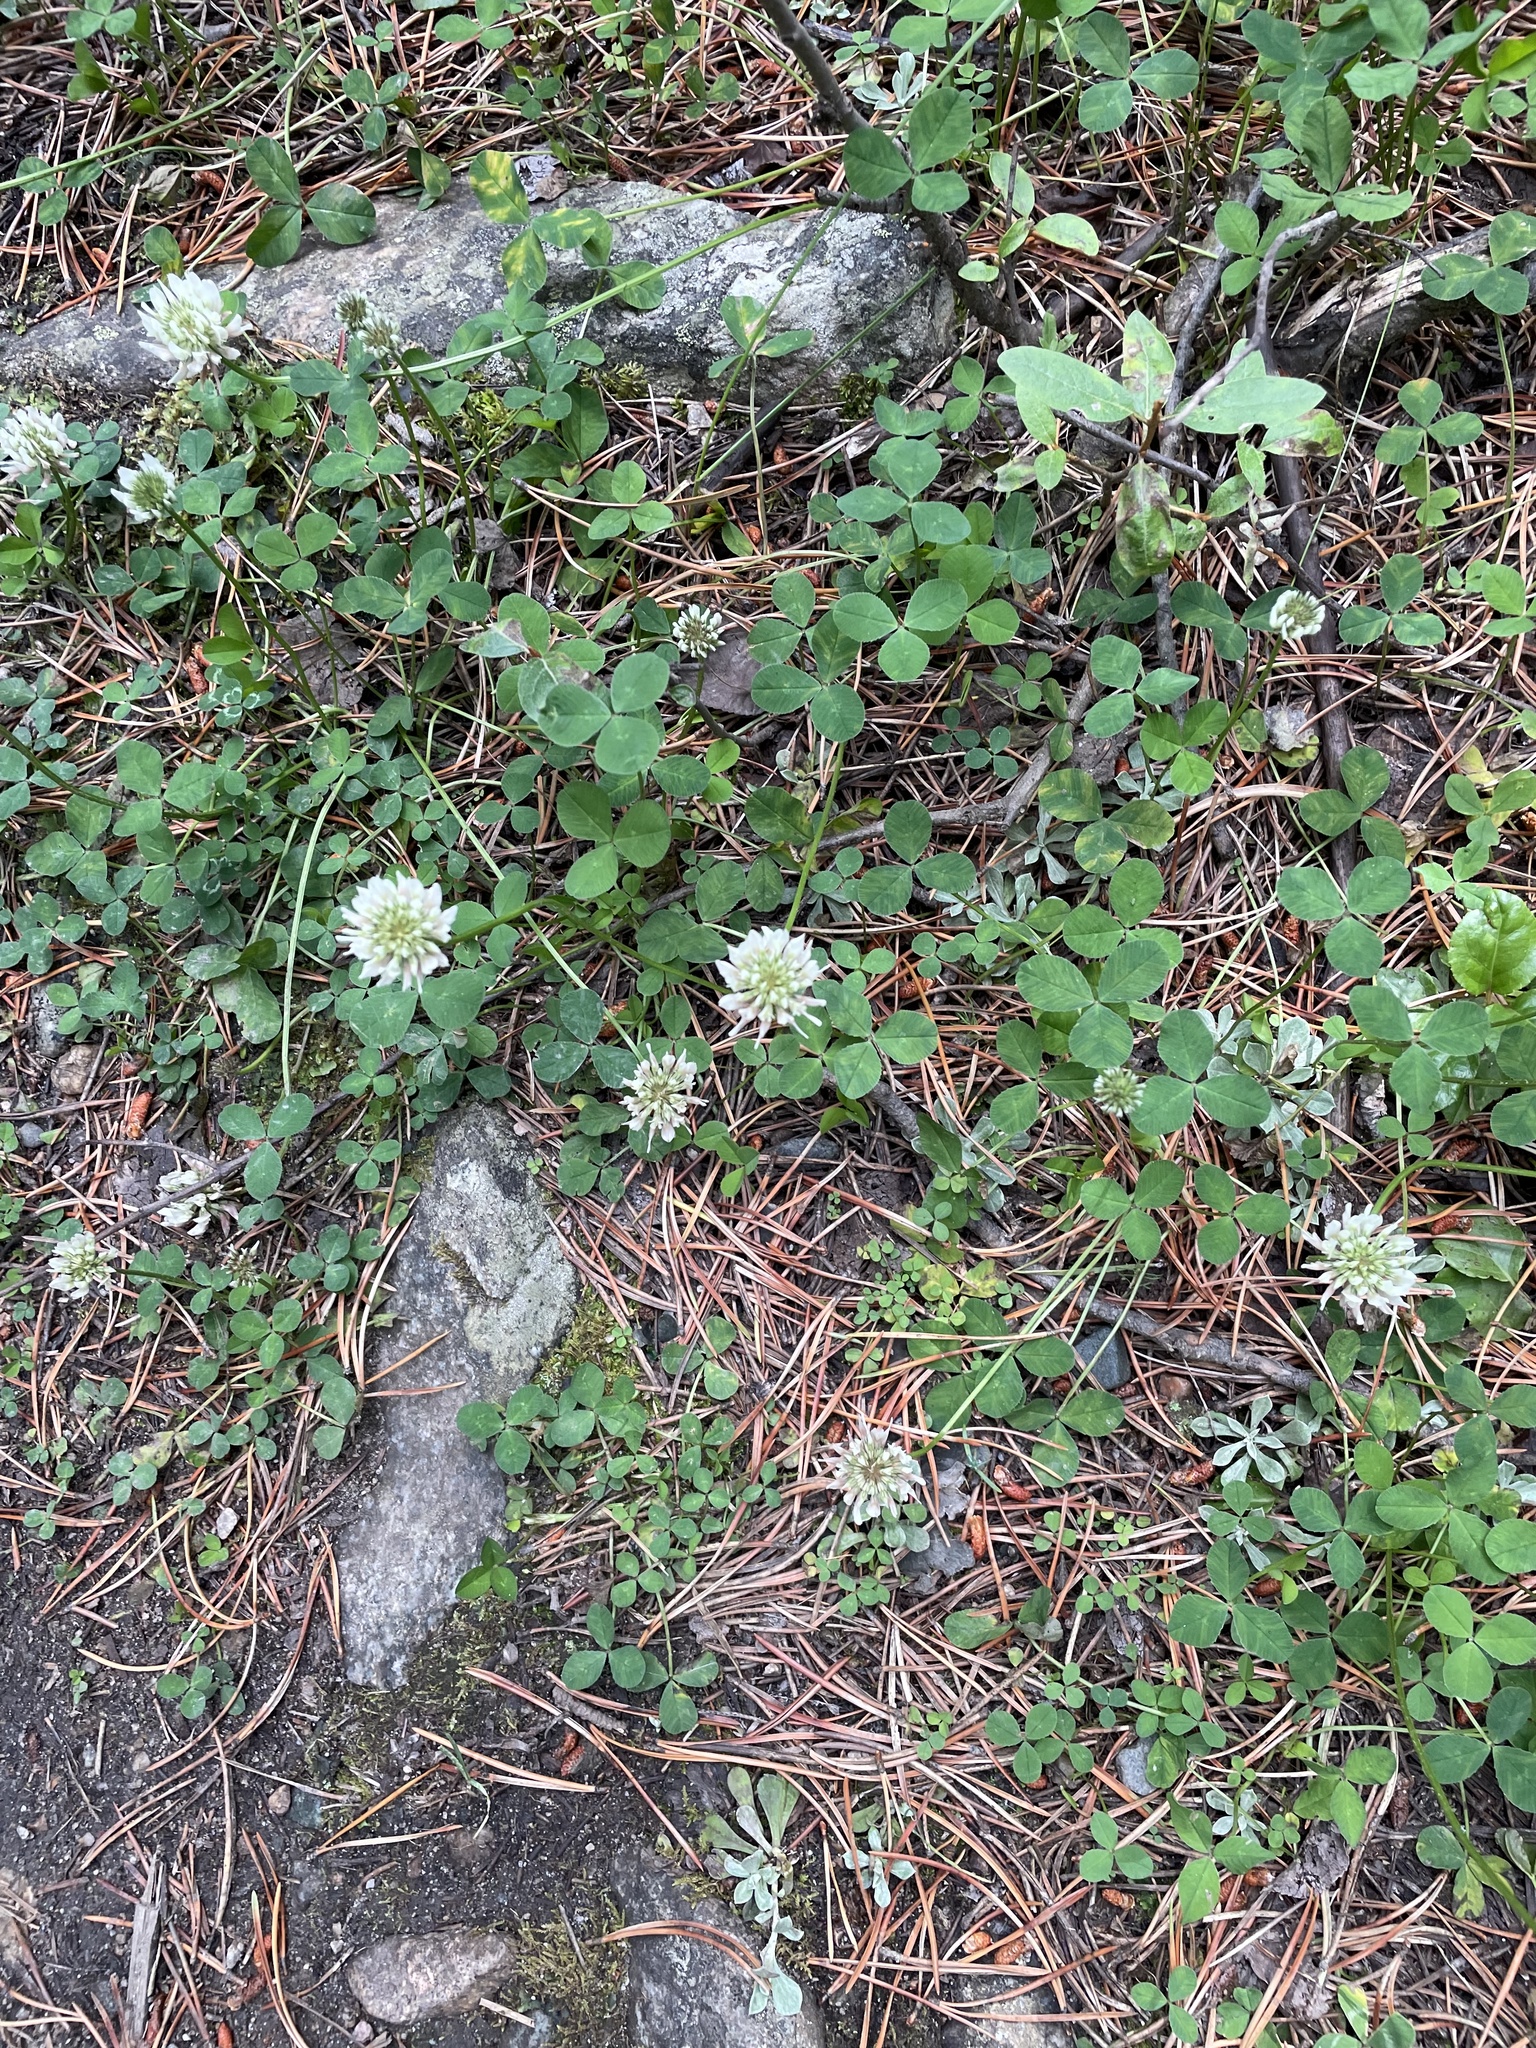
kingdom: Plantae
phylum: Tracheophyta
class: Magnoliopsida
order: Fabales
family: Fabaceae
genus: Trifolium
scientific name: Trifolium repens
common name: White clover
